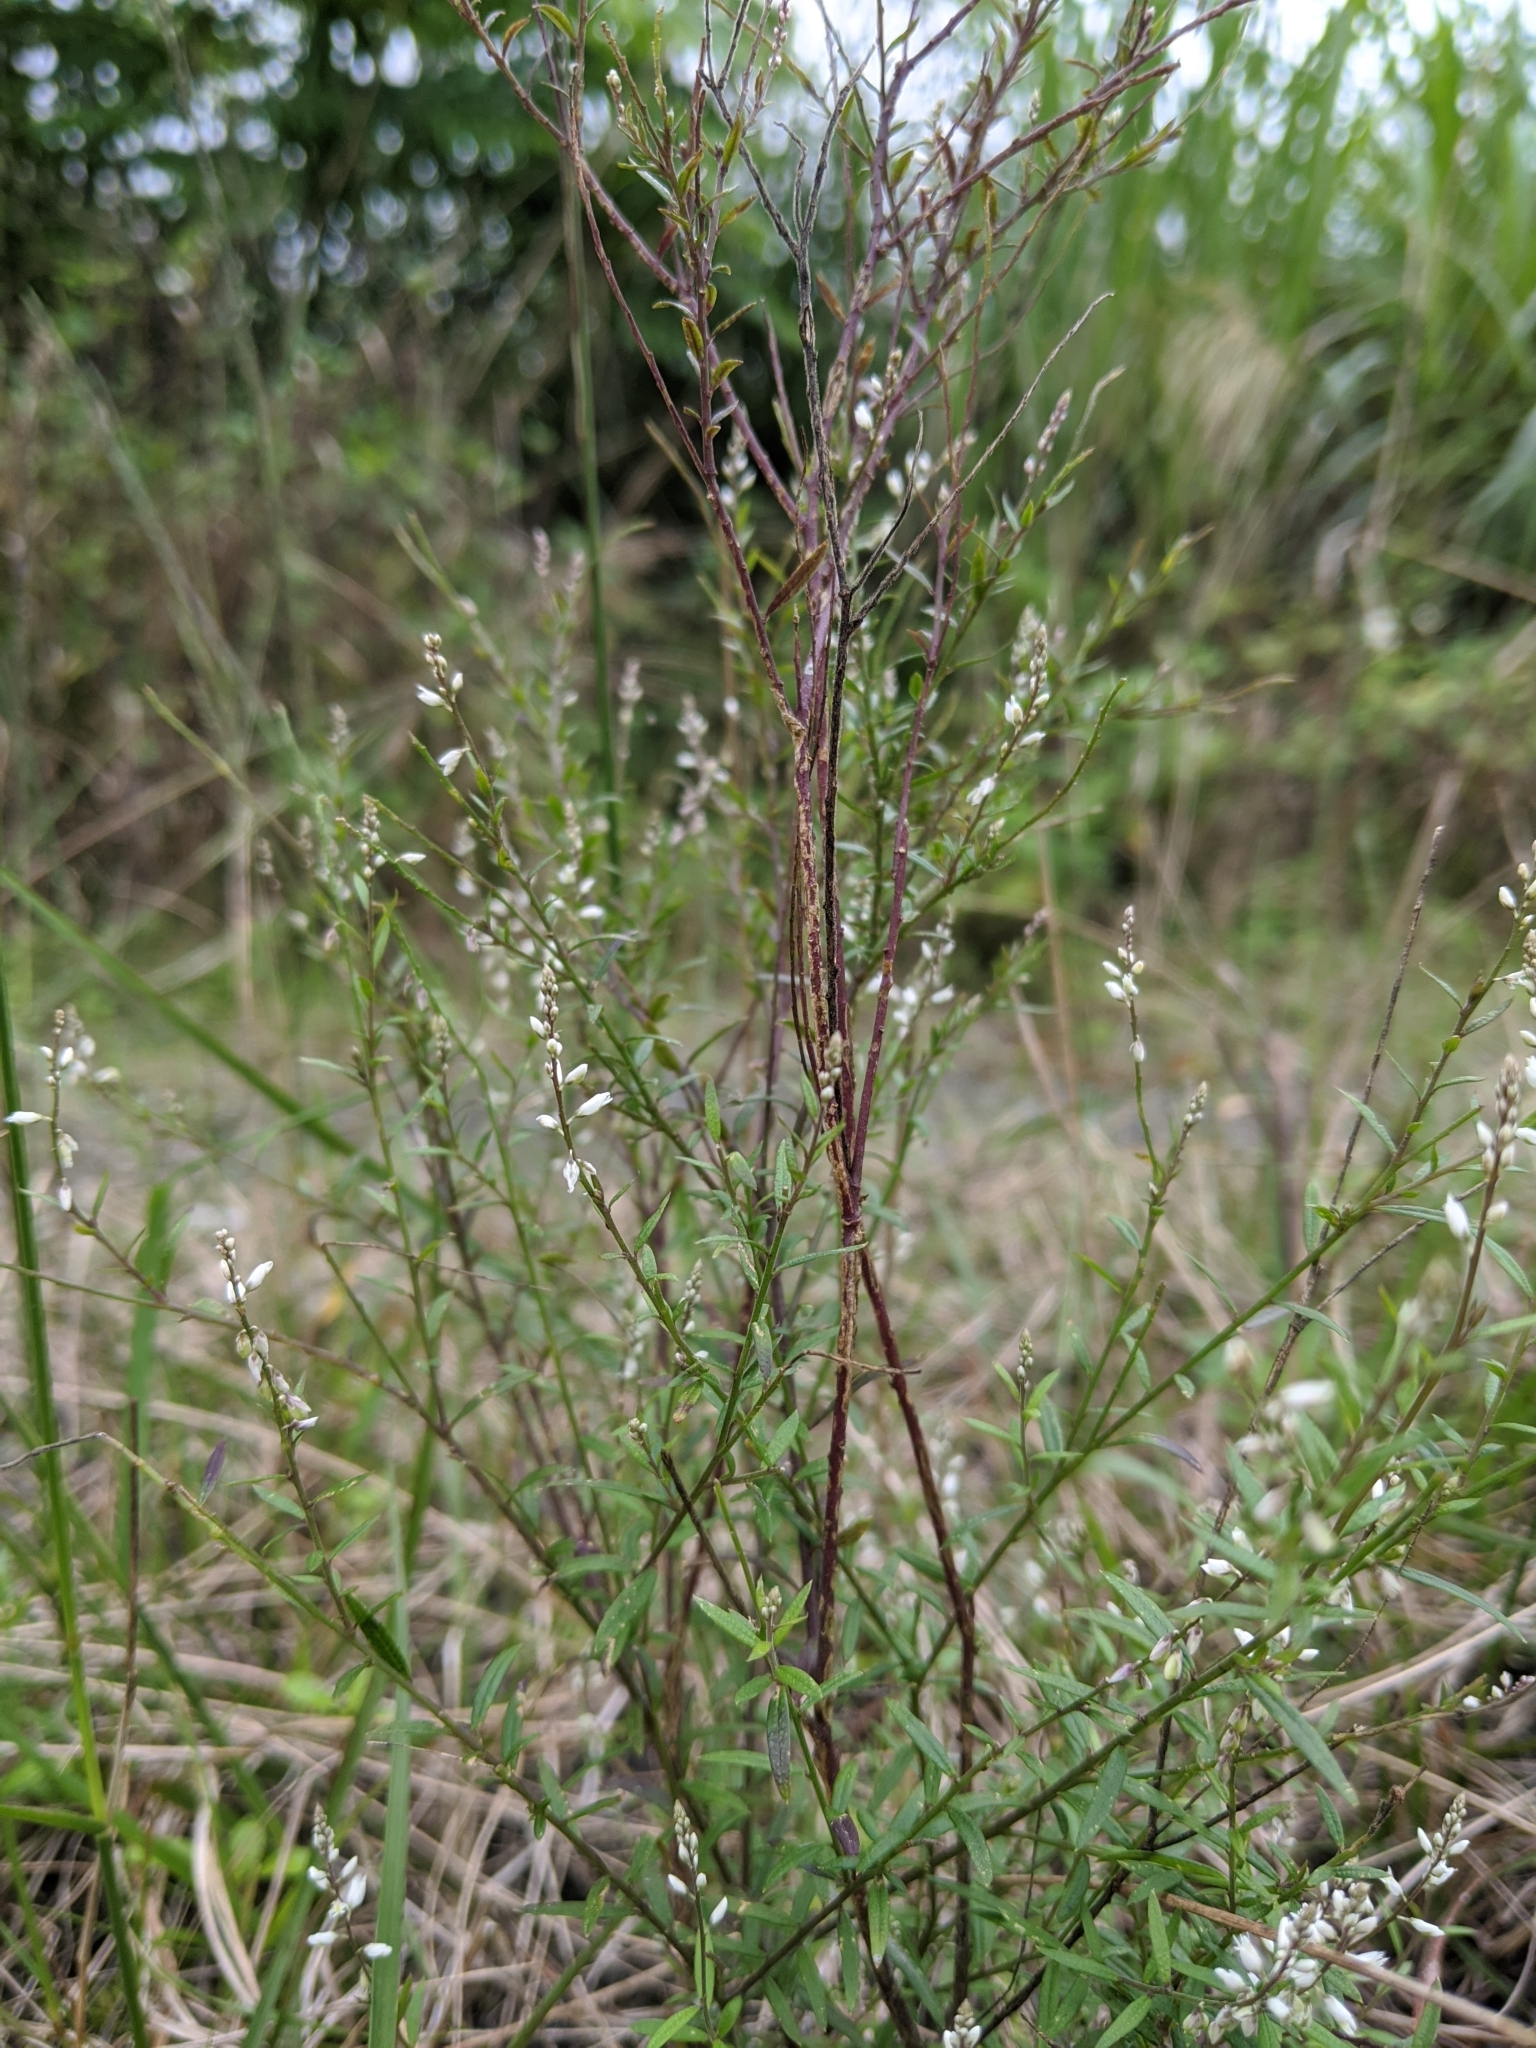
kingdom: Plantae
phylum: Tracheophyta
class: Magnoliopsida
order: Fabales
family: Polygalaceae
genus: Polygala
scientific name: Polygala paniculata
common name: Orosne
